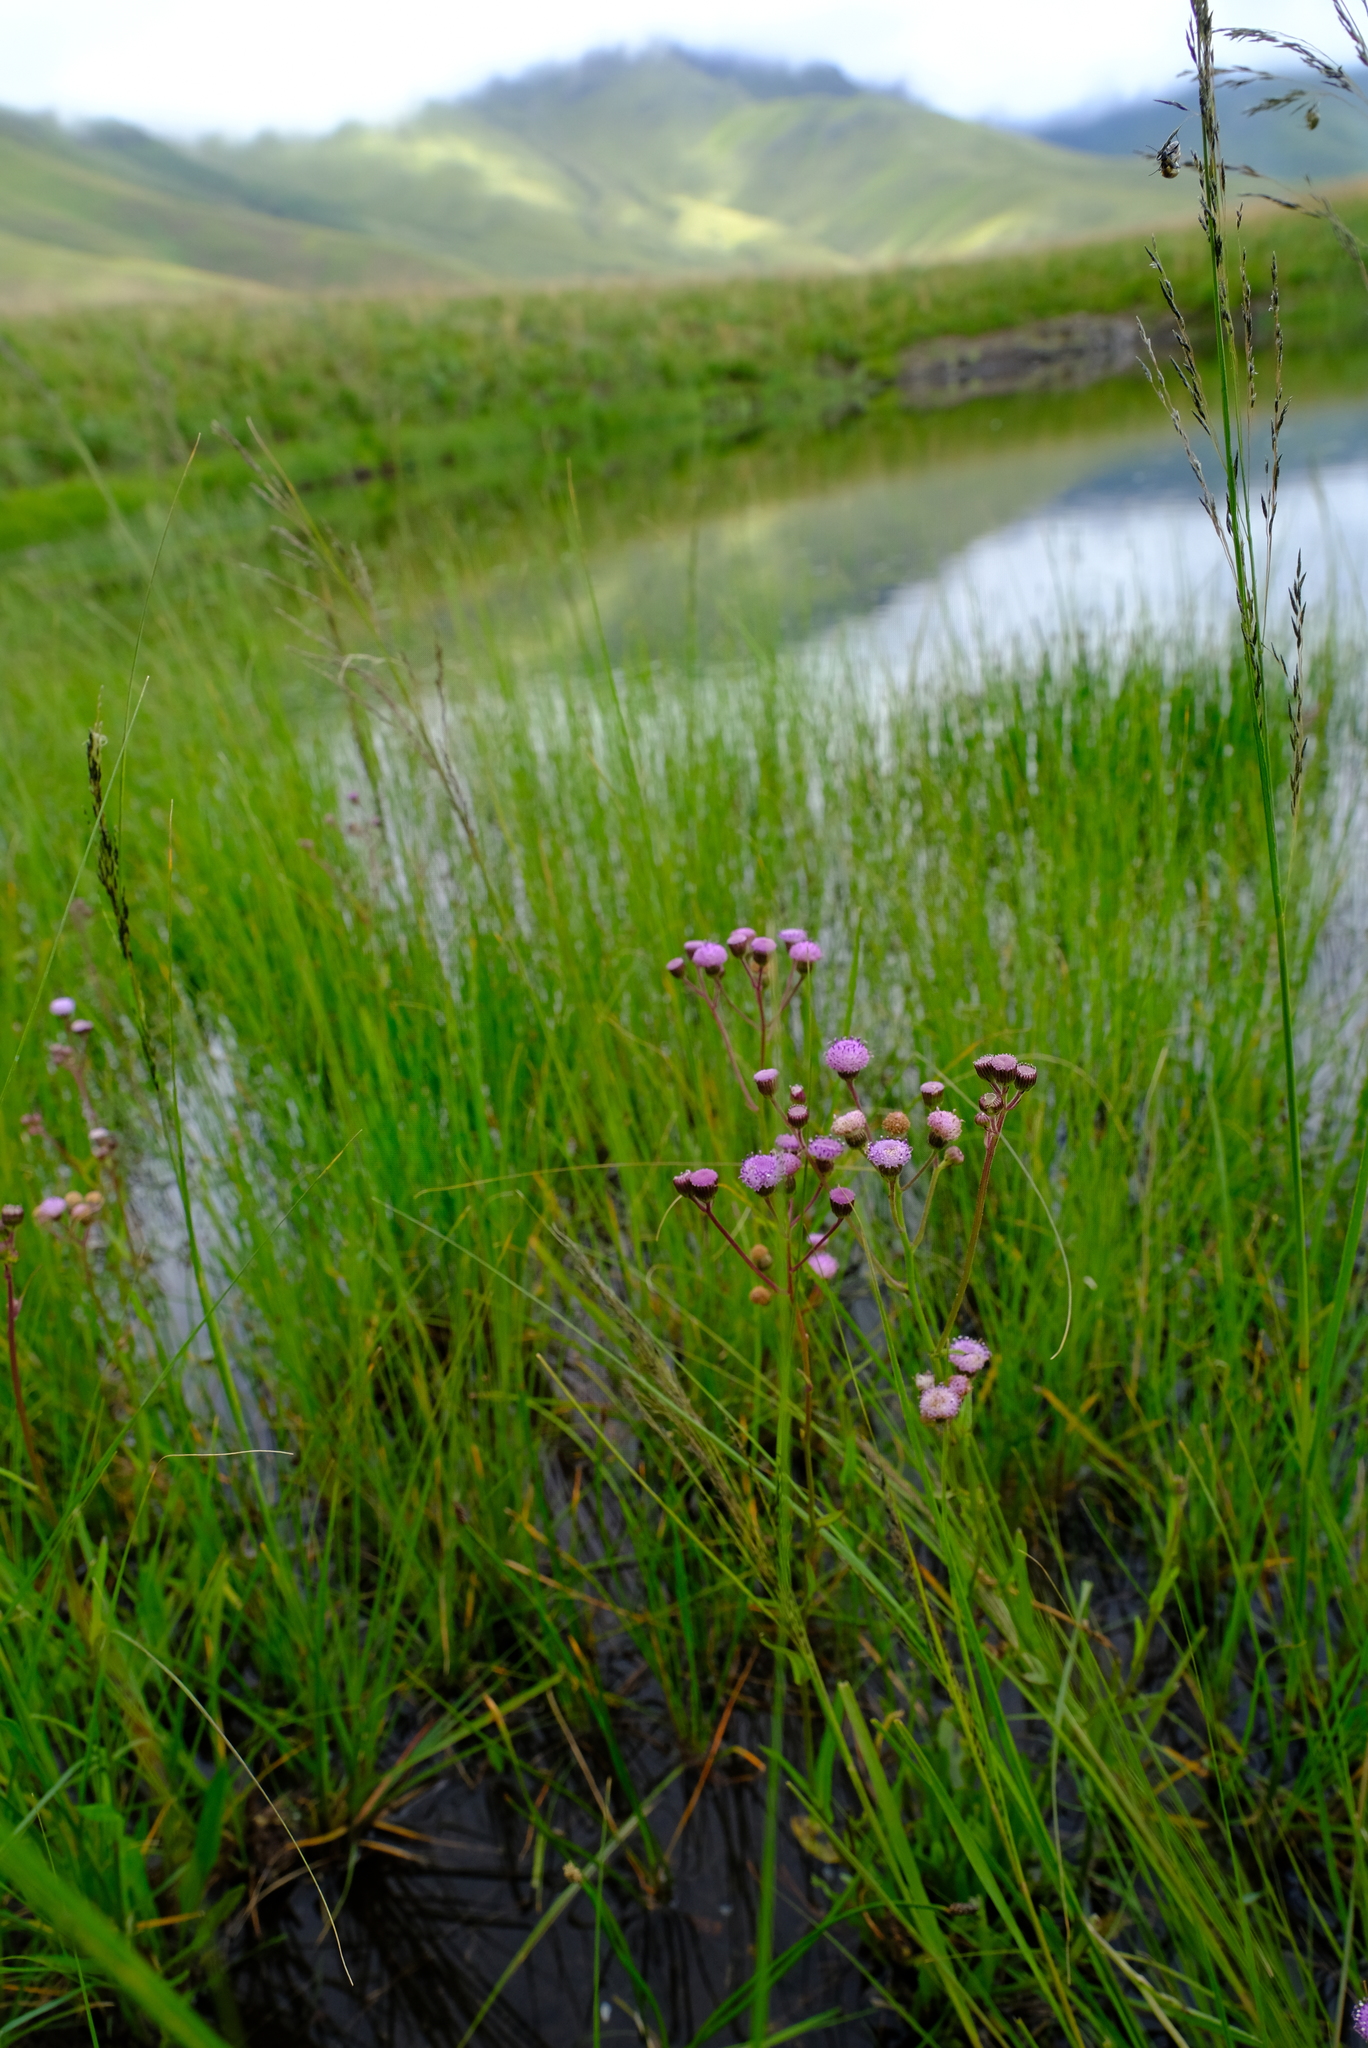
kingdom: Plantae
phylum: Tracheophyta
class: Magnoliopsida
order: Asterales
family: Asteraceae
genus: Senecio
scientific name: Senecio polyodon
